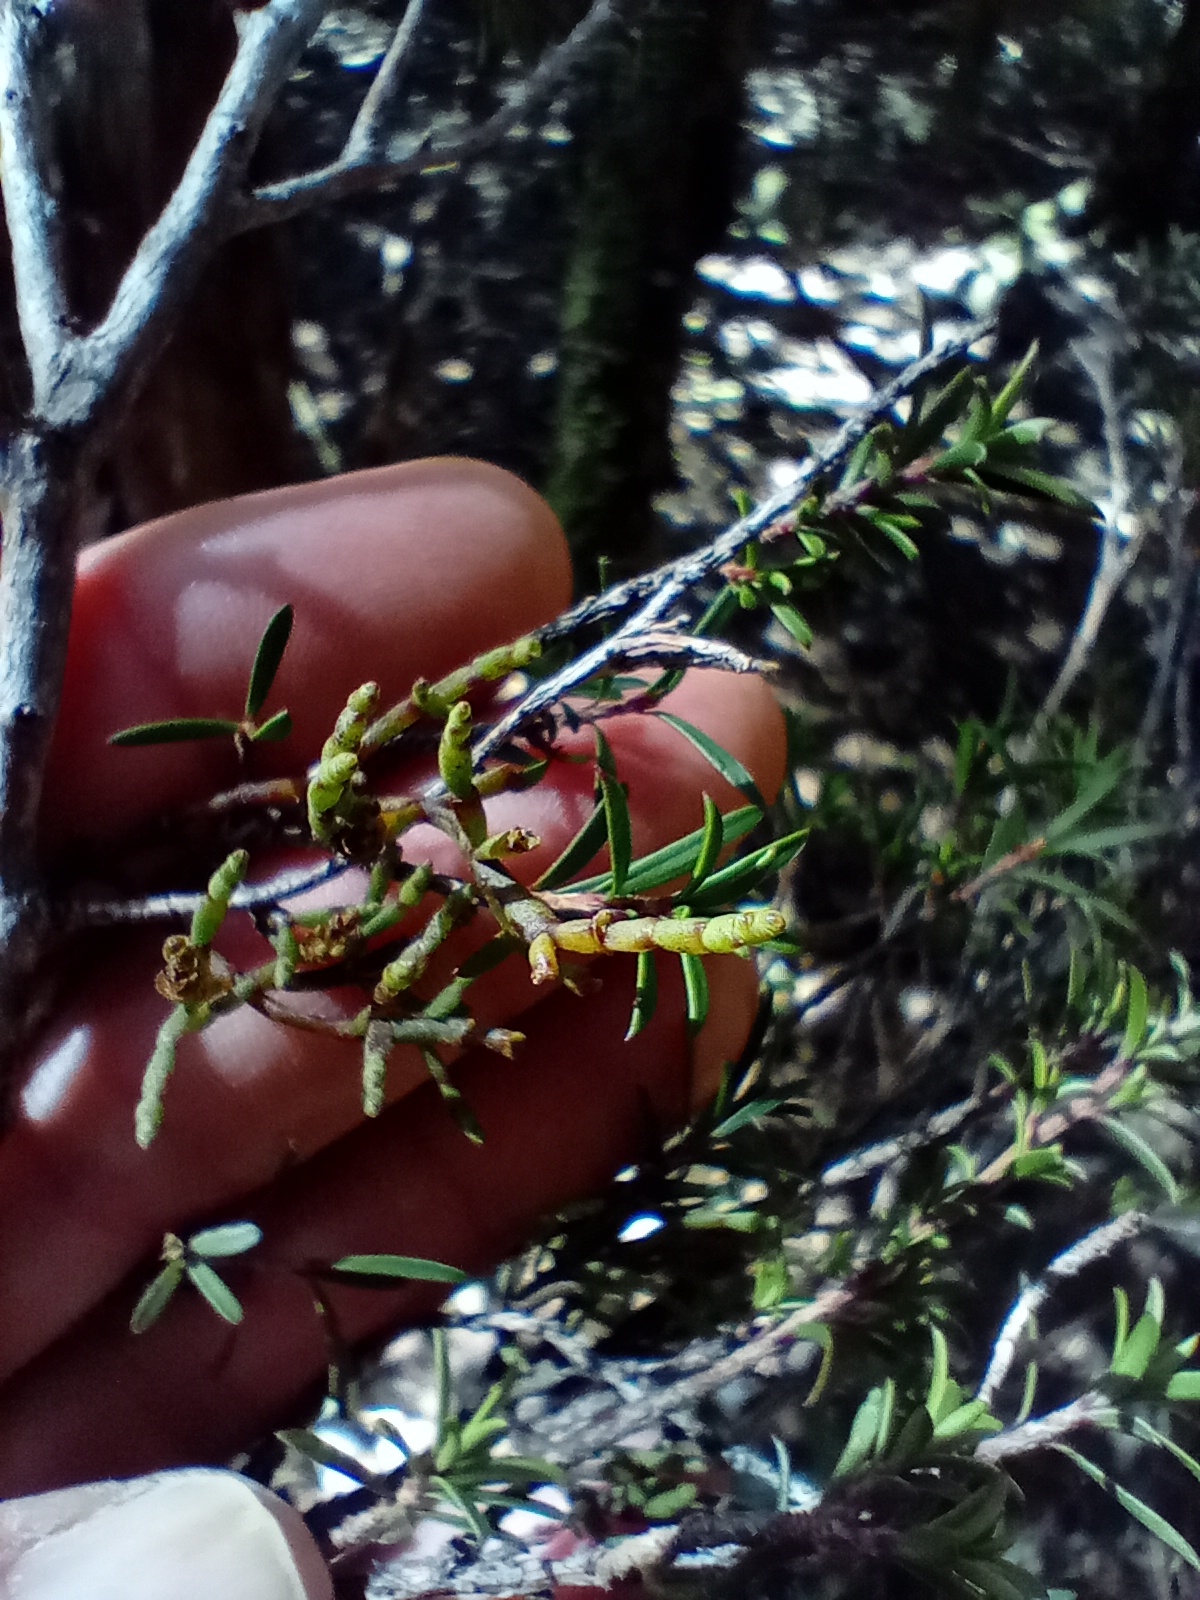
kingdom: Plantae
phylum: Tracheophyta
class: Magnoliopsida
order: Santalales
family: Viscaceae
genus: Korthalsella
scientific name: Korthalsella salicornioides
